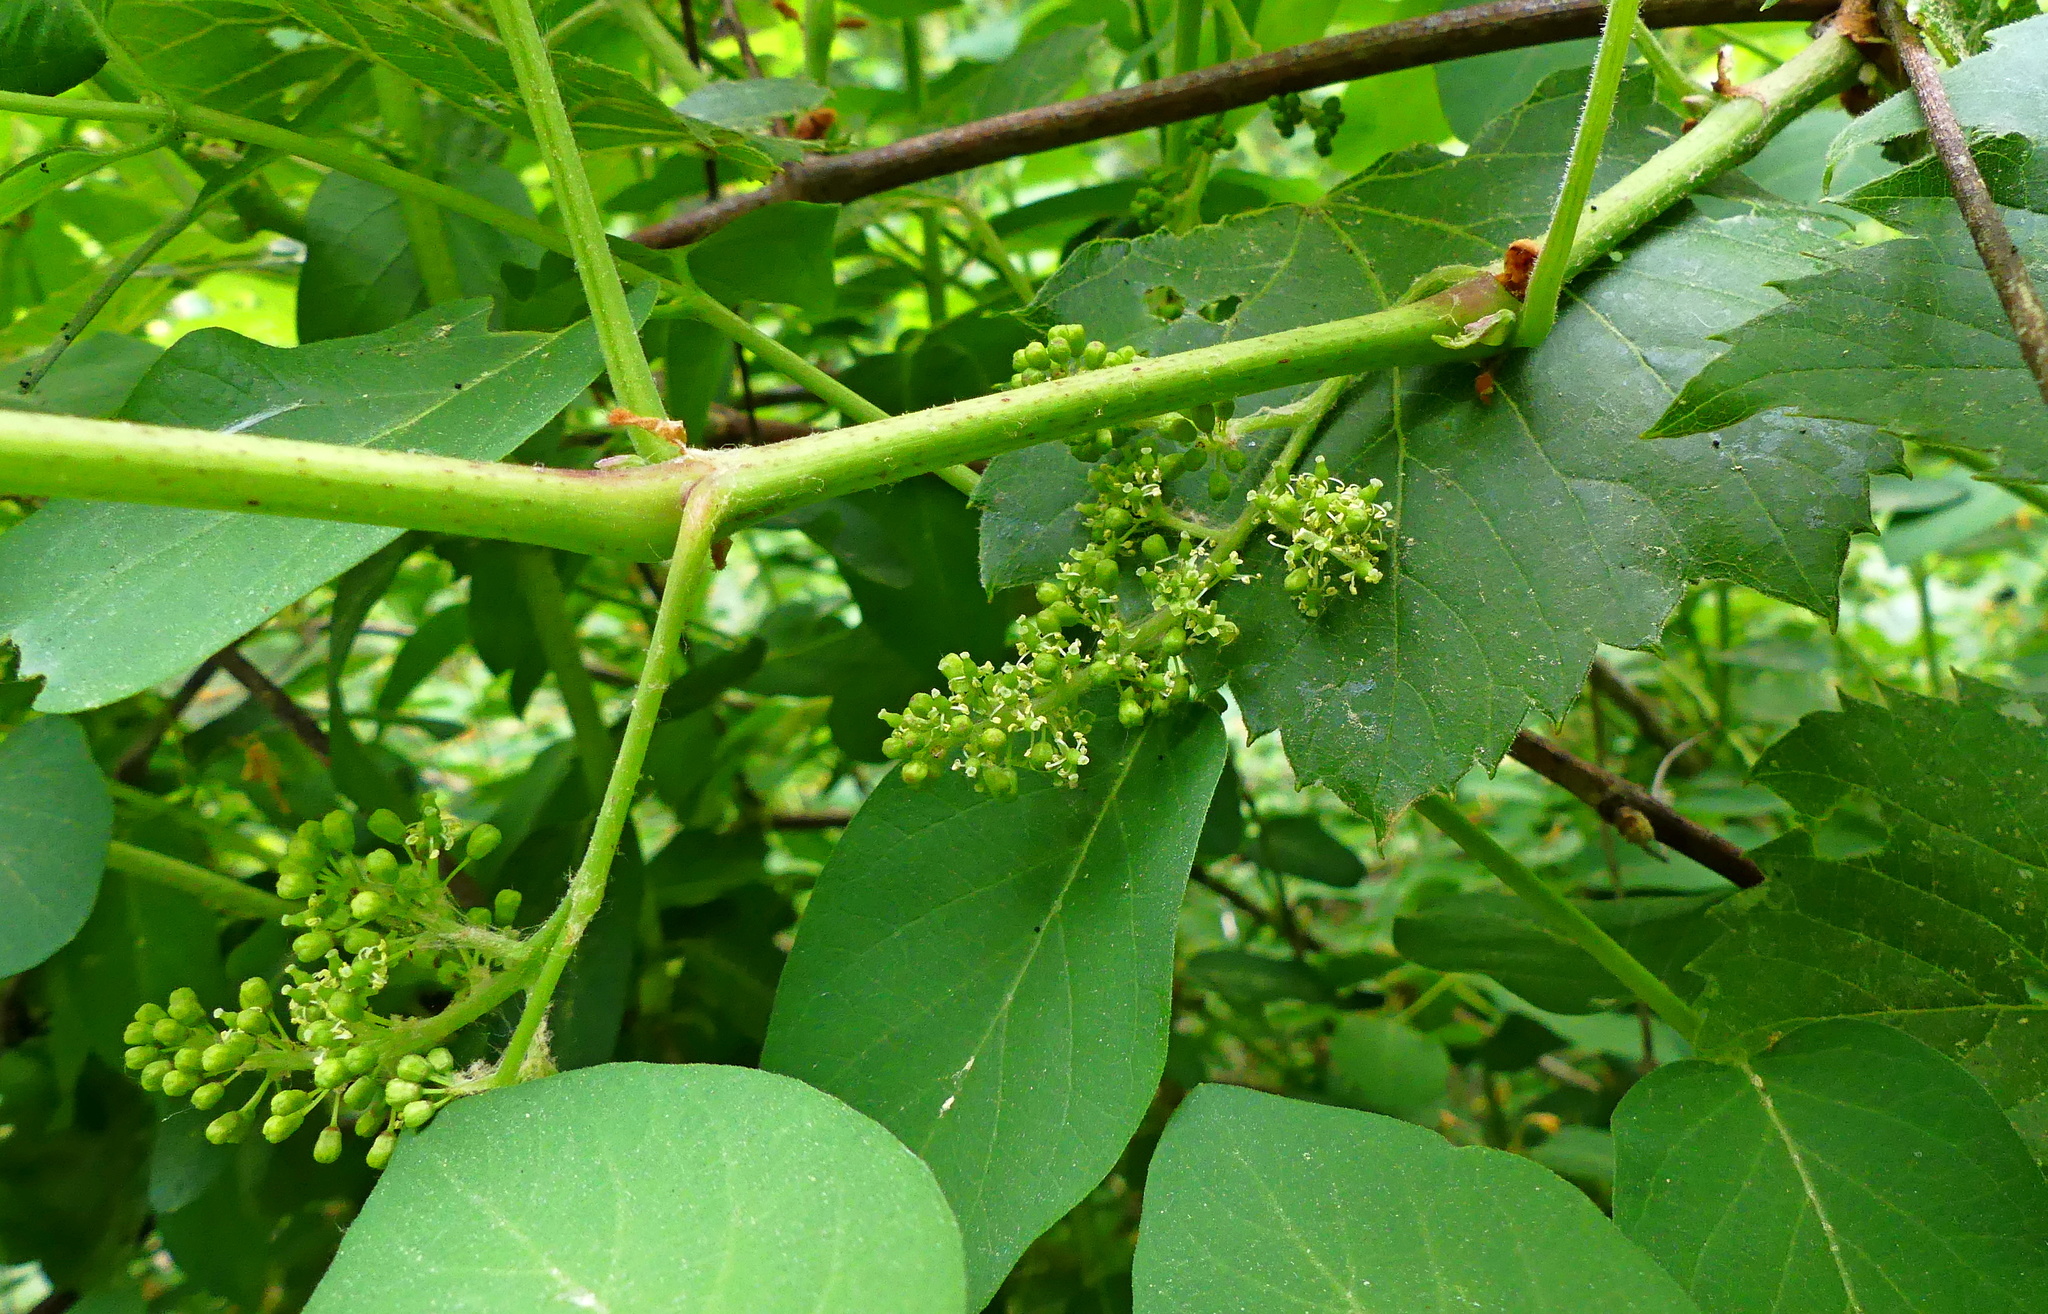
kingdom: Plantae
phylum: Tracheophyta
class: Magnoliopsida
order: Vitales
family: Vitaceae
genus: Vitis
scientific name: Vitis riparia
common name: Frost grape
